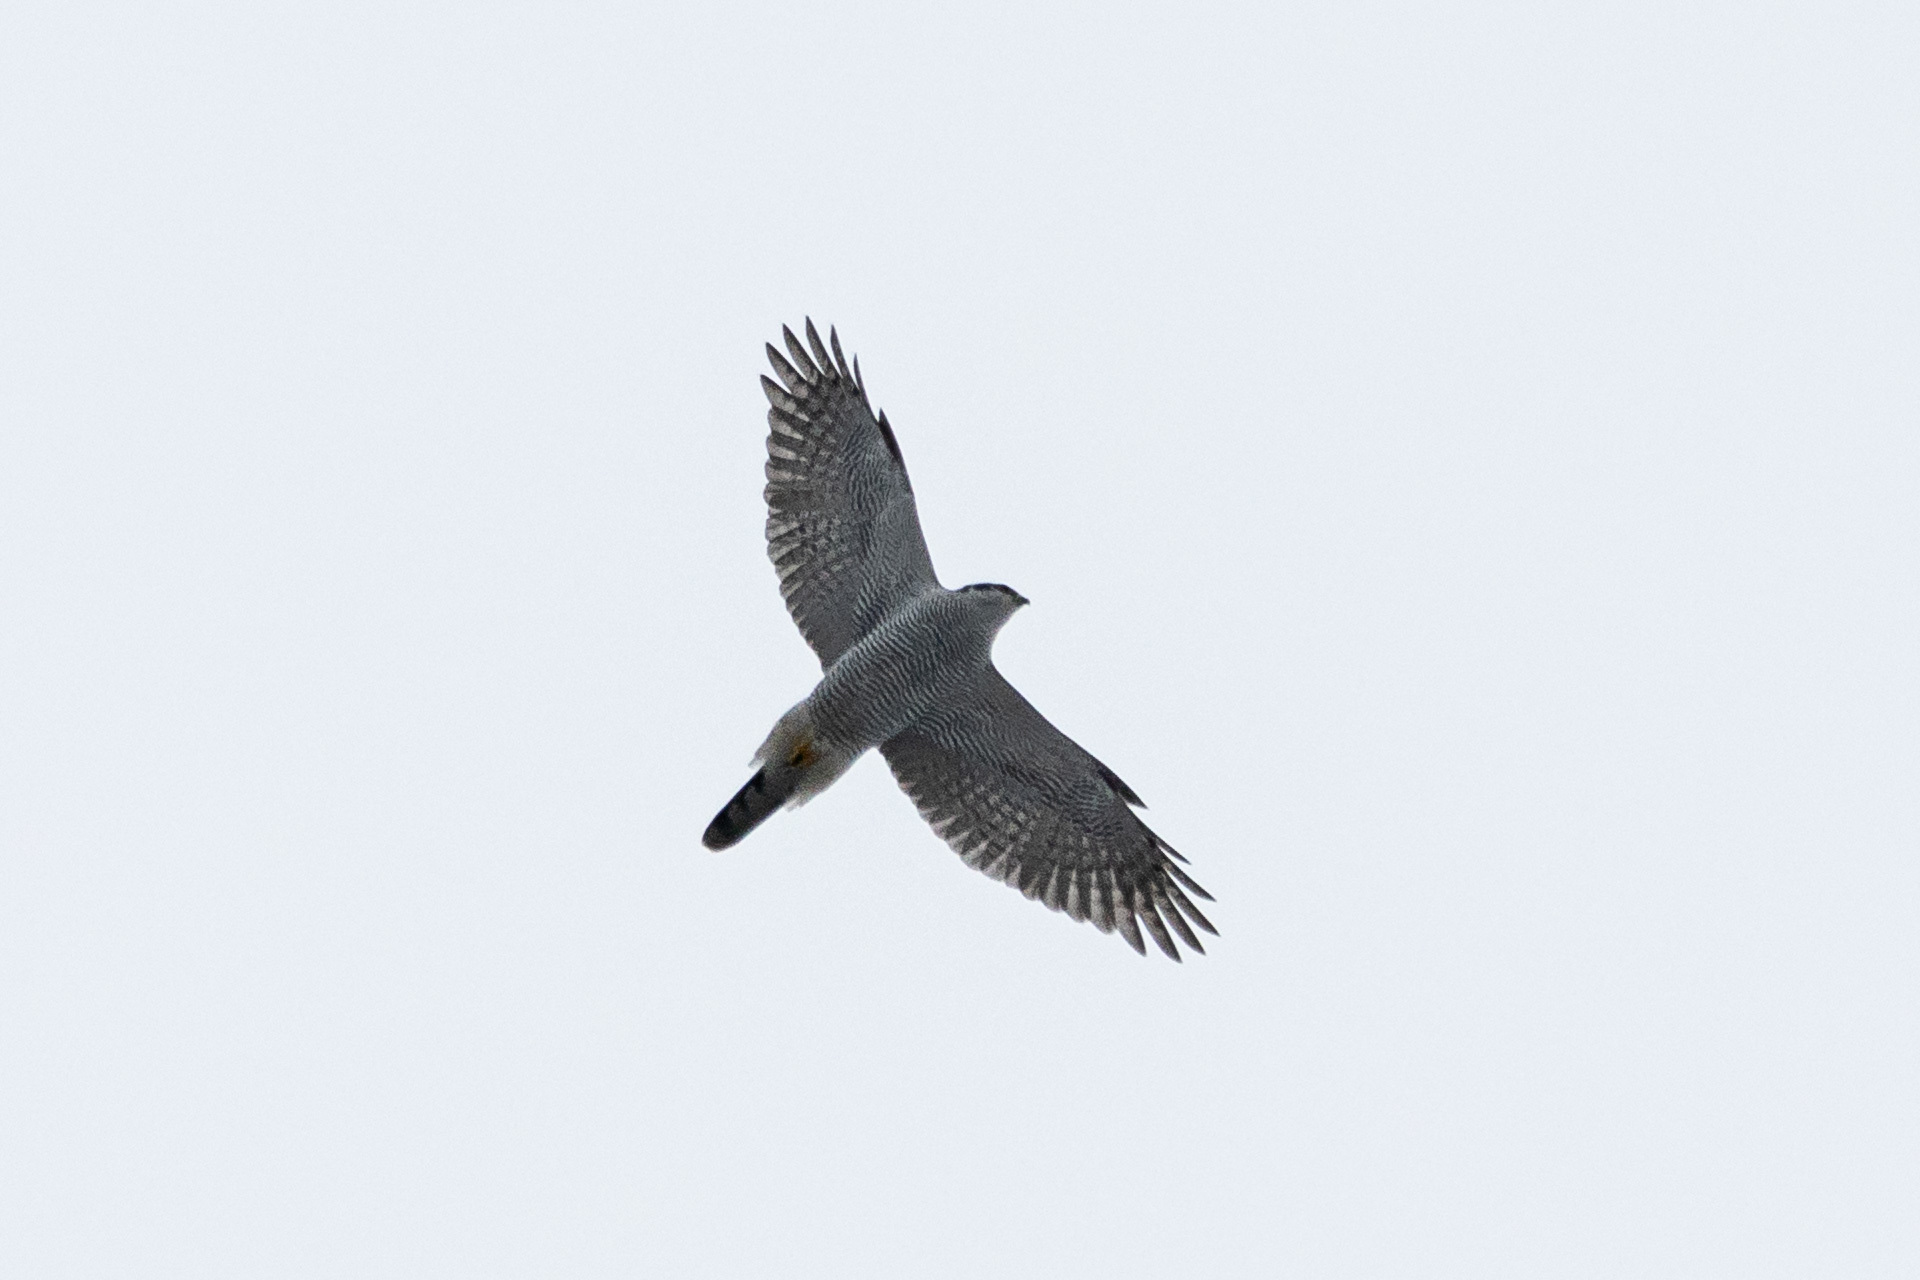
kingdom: Animalia
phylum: Chordata
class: Aves
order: Accipitriformes
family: Accipitridae
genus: Accipiter
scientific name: Accipiter gentilis
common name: Northern goshawk
